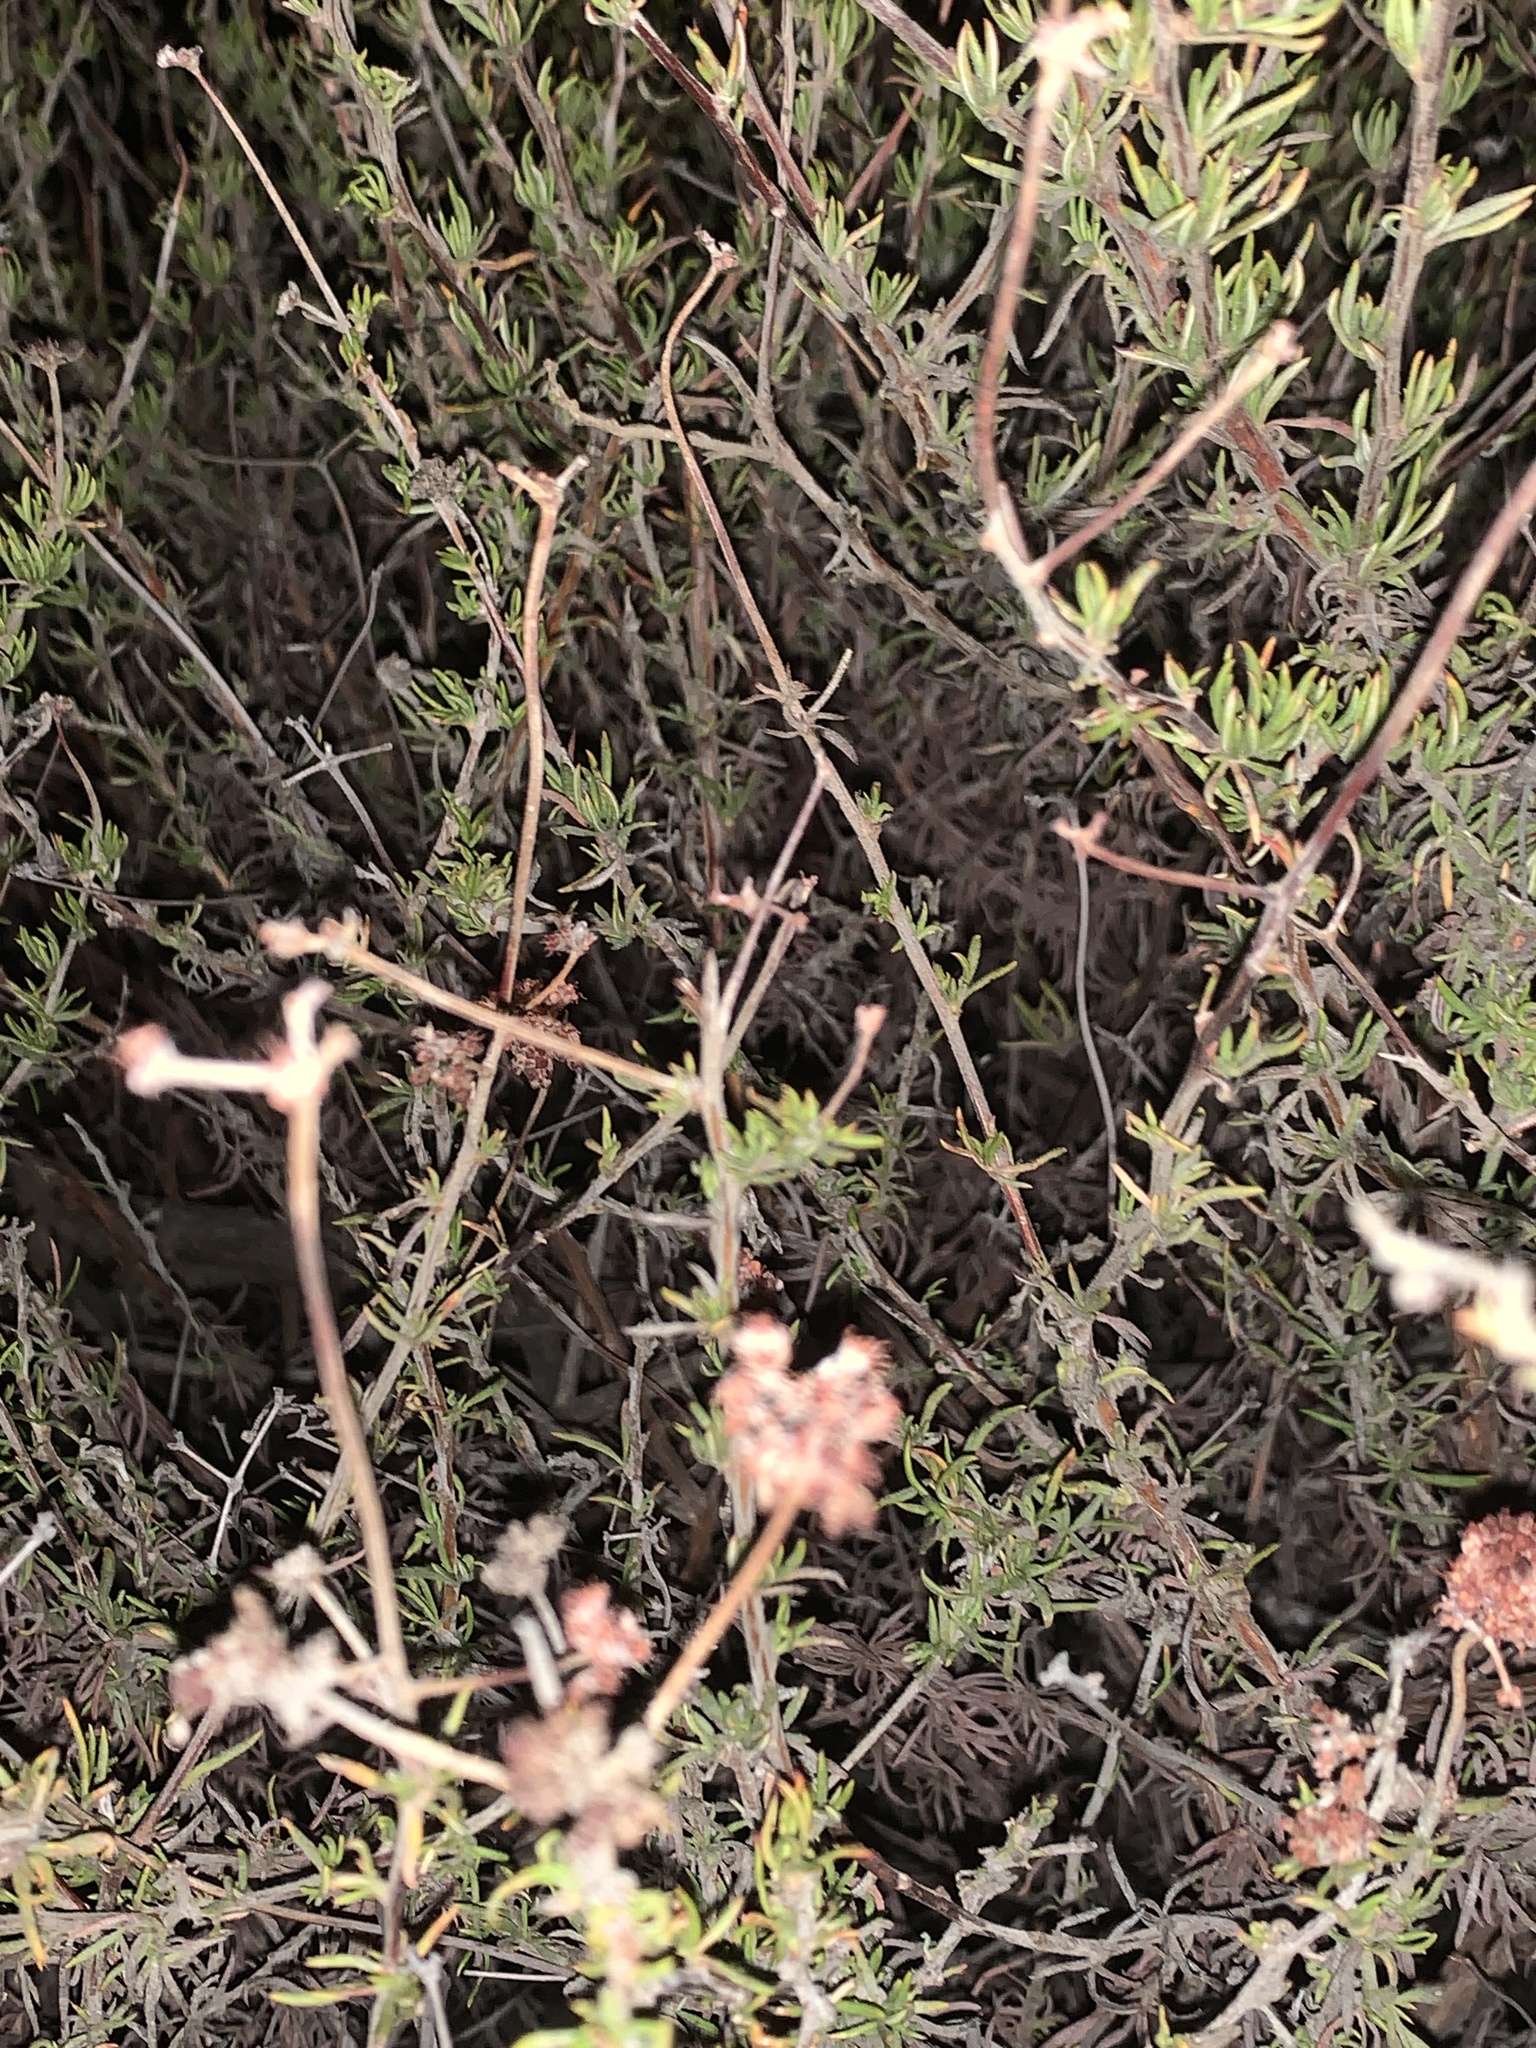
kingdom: Plantae
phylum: Tracheophyta
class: Magnoliopsida
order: Caryophyllales
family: Polygonaceae
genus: Eriogonum
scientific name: Eriogonum fasciculatum
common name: California wild buckwheat
